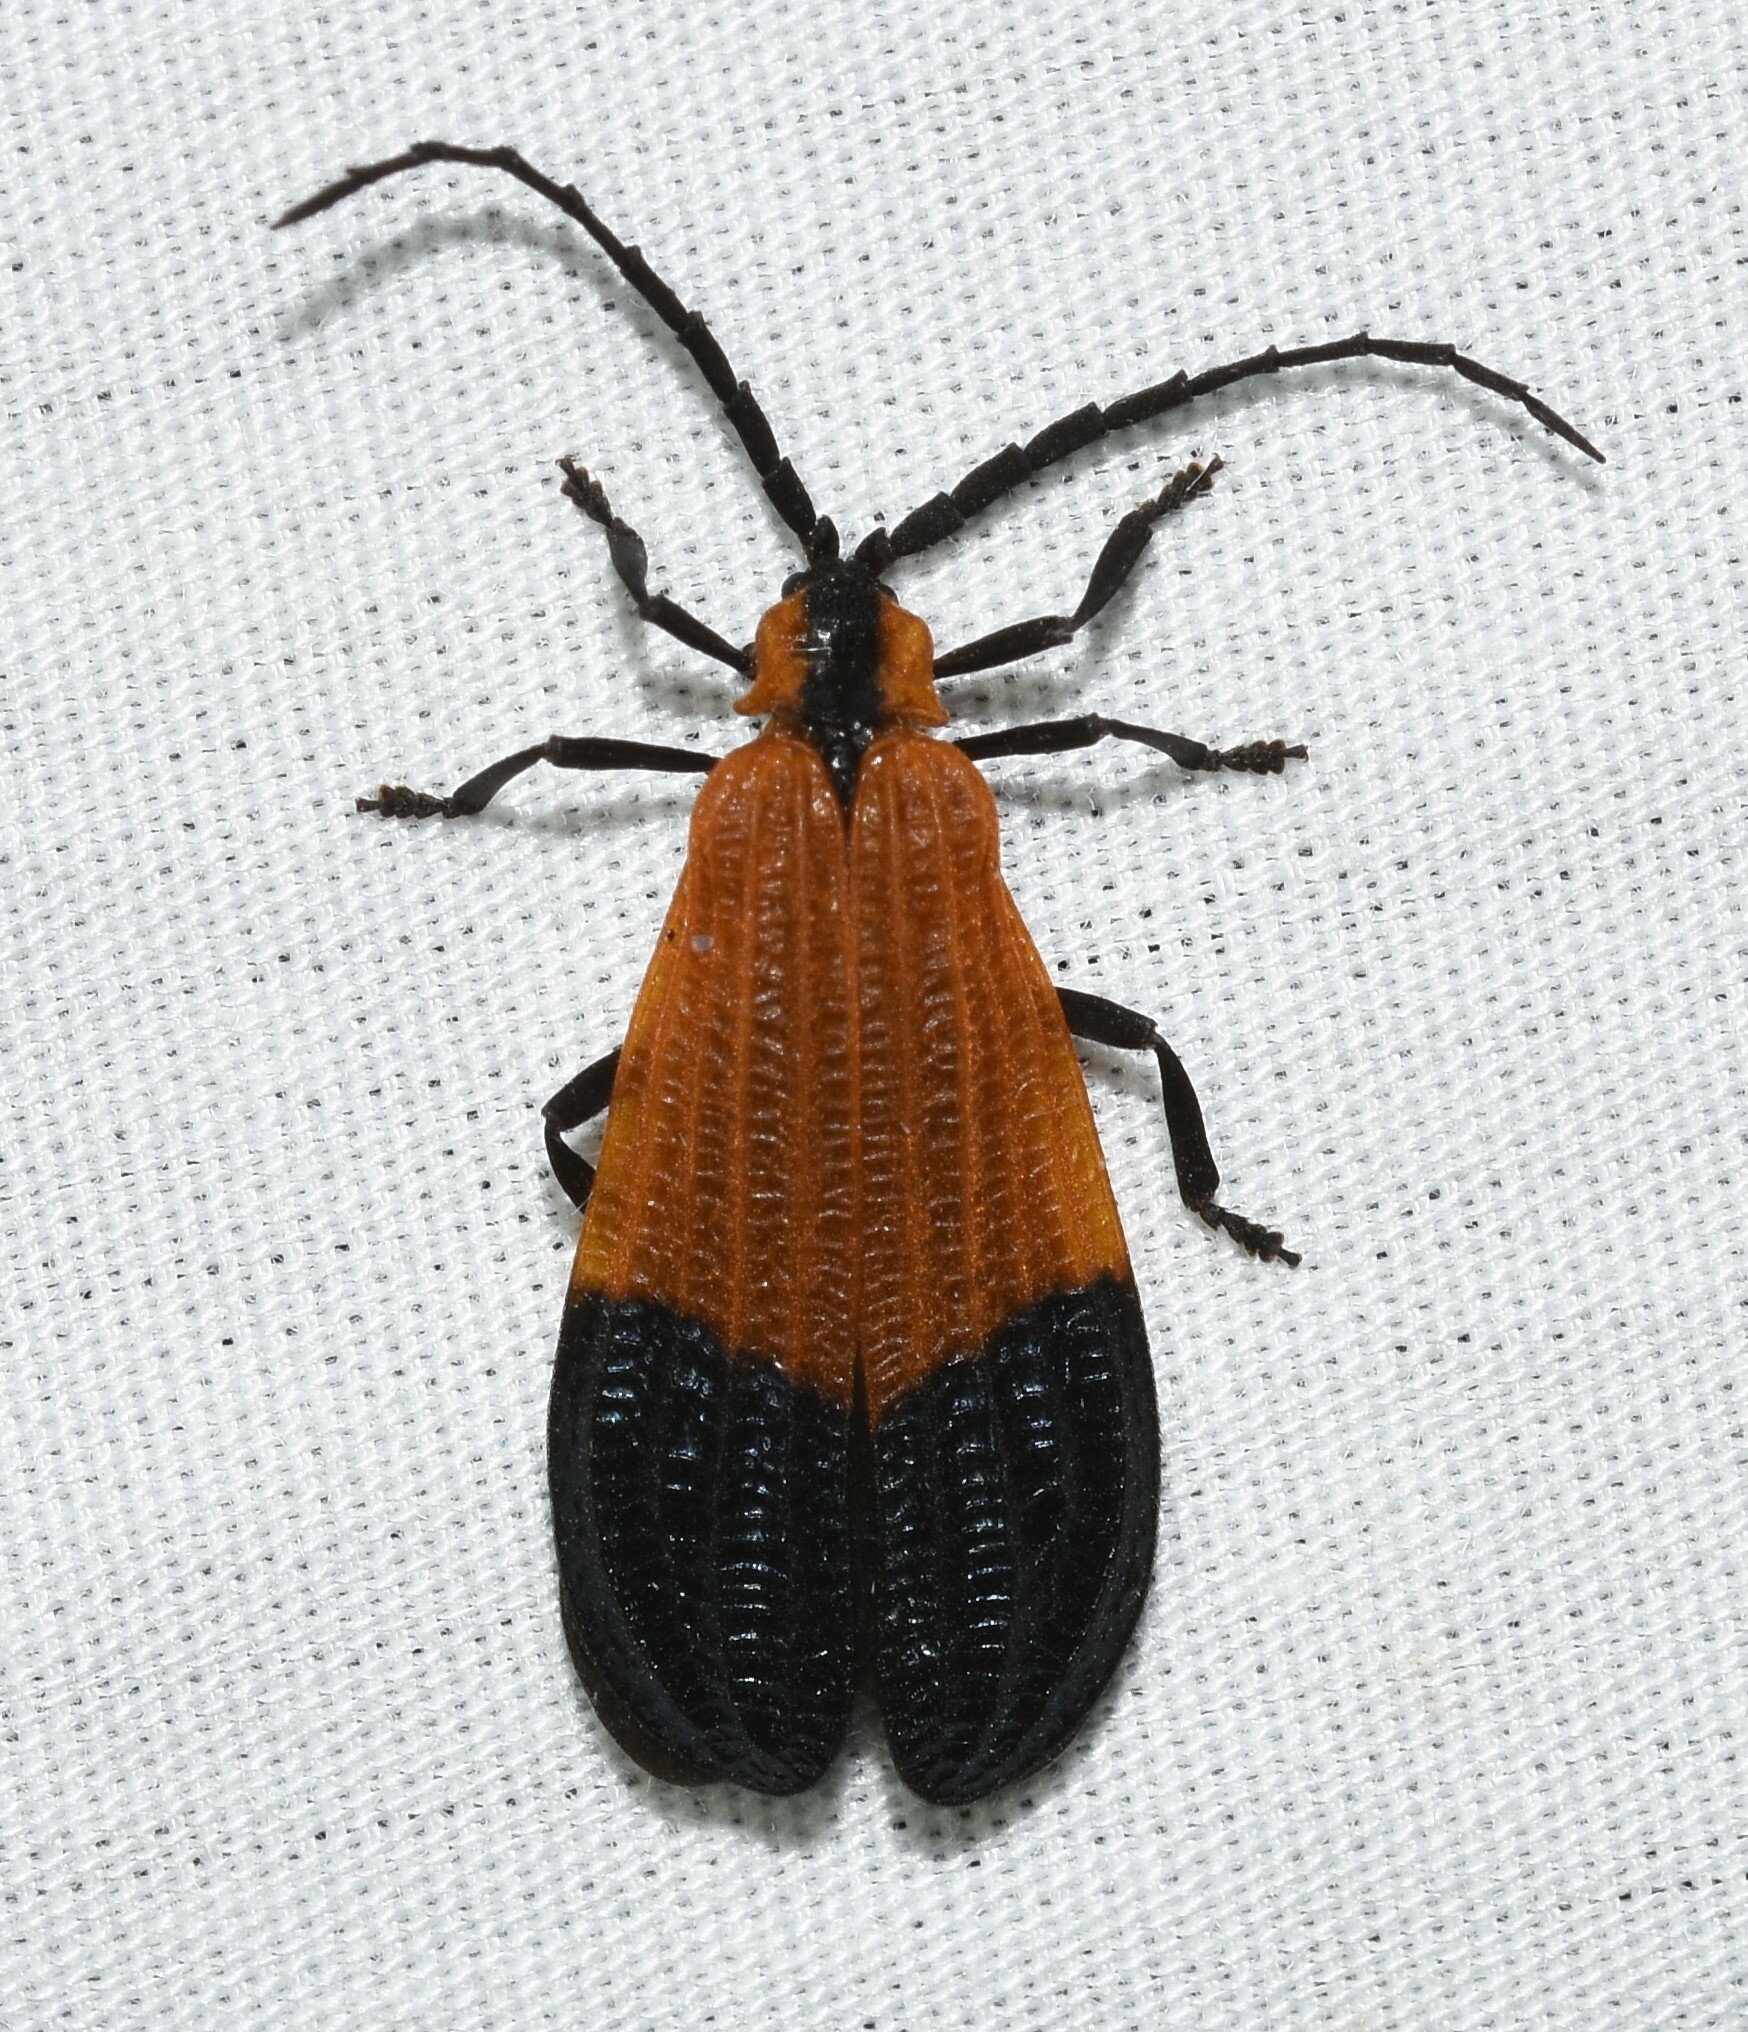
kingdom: Animalia
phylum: Arthropoda
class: Insecta
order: Coleoptera
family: Lycidae
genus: Calopteron
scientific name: Calopteron terminale
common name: End band net-winged beetle
